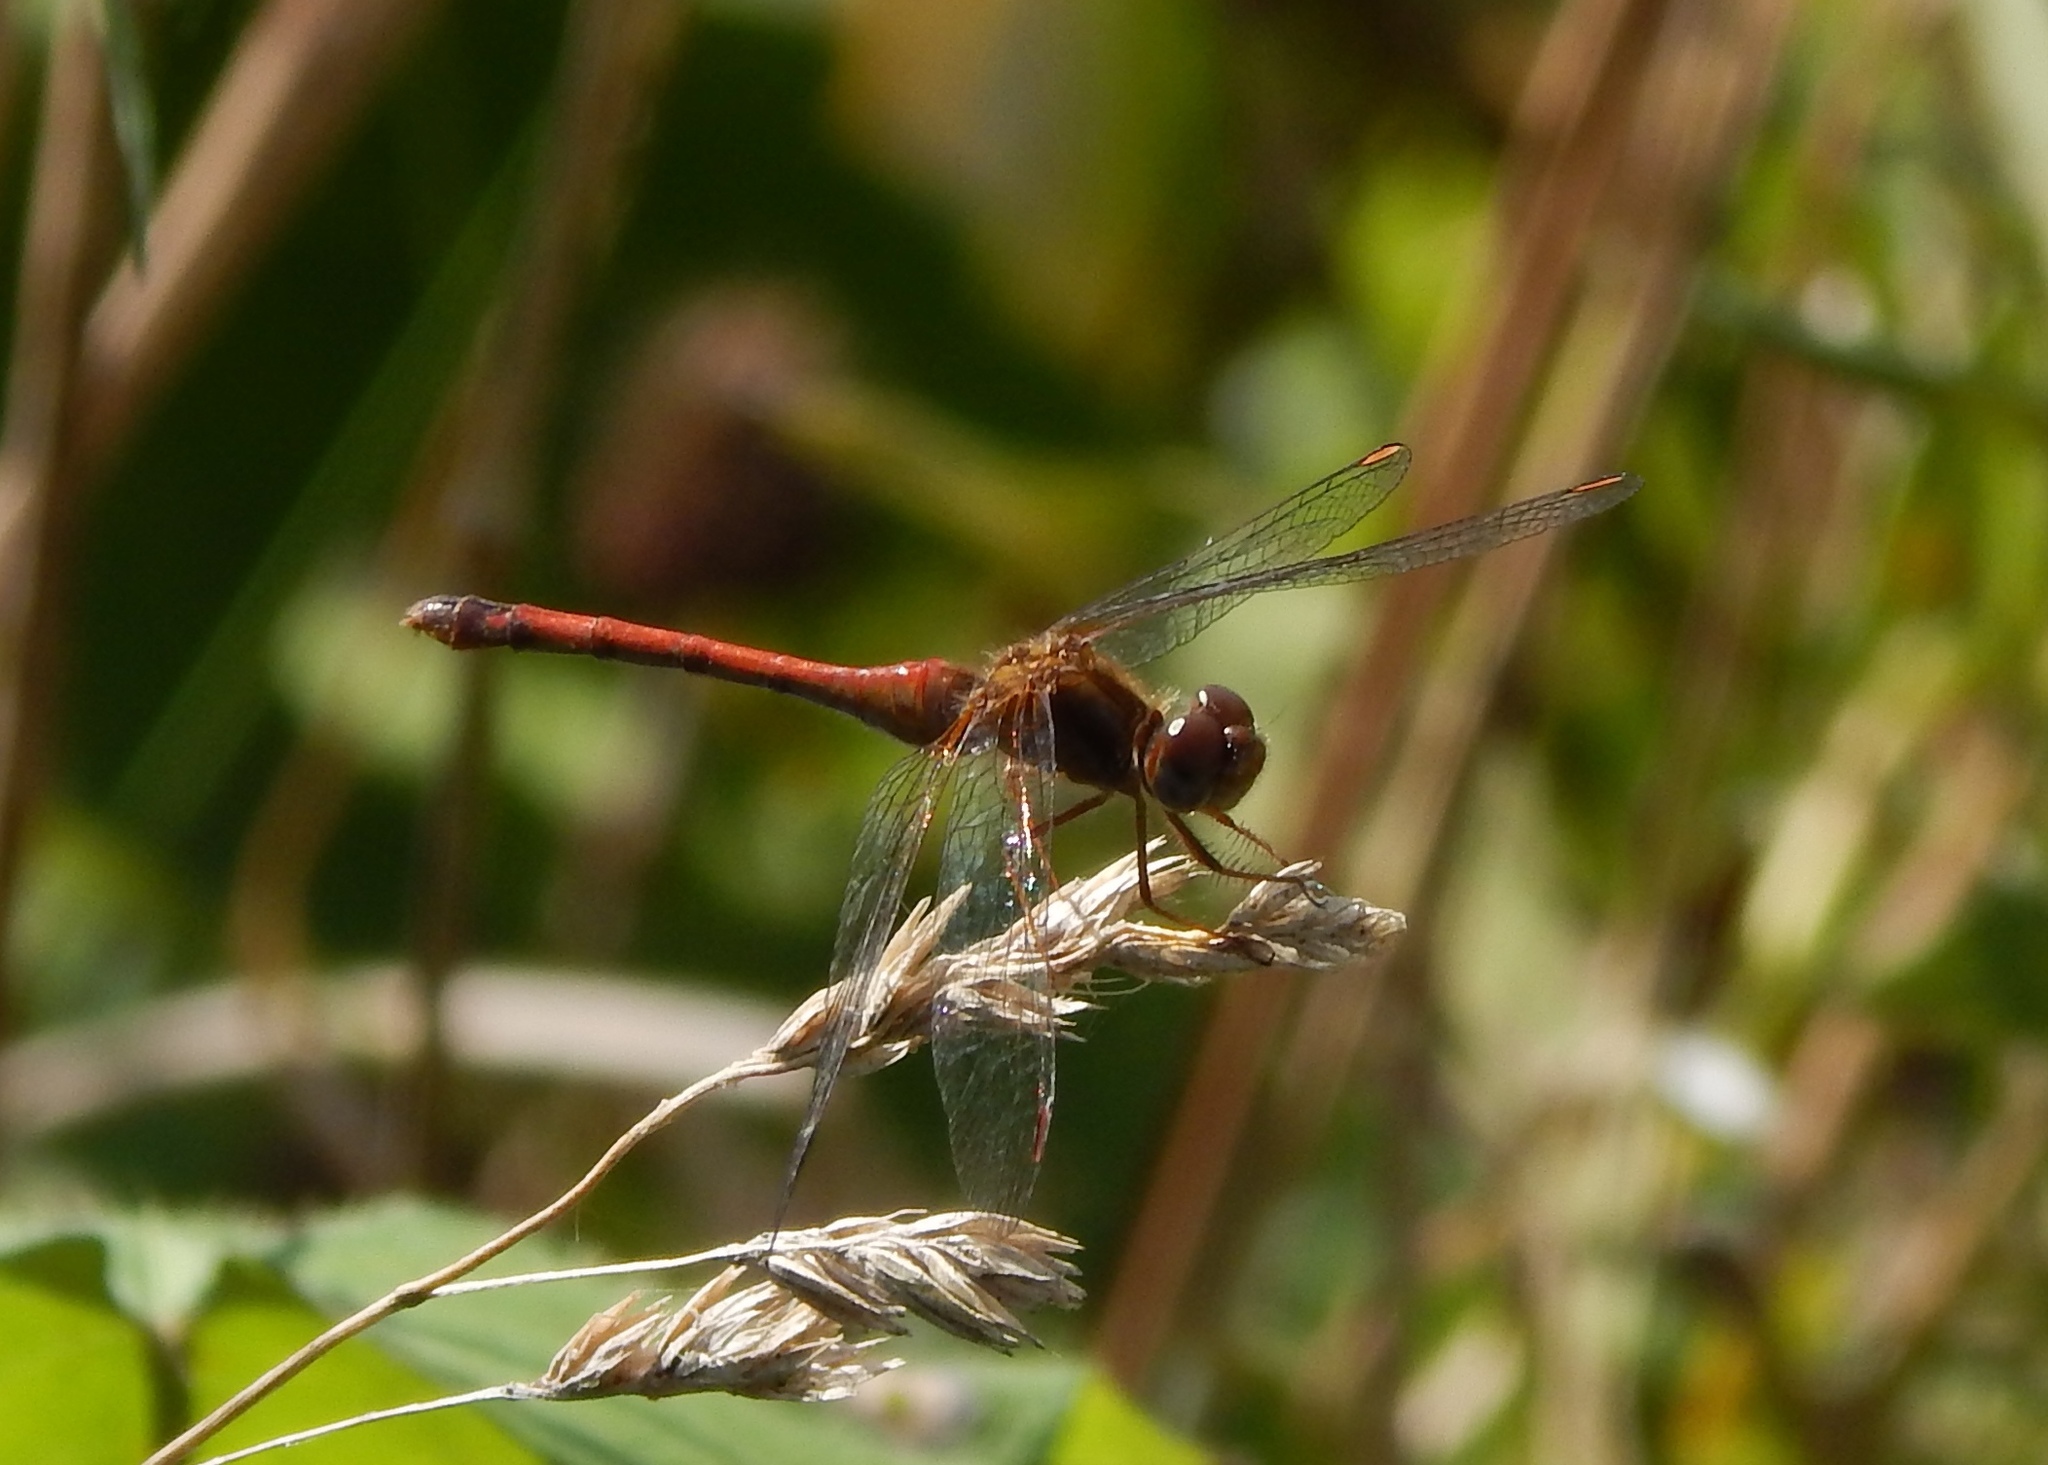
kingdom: Animalia
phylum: Arthropoda
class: Insecta
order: Odonata
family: Libellulidae
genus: Sympetrum
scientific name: Sympetrum vicinum
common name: Autumn meadowhawk
